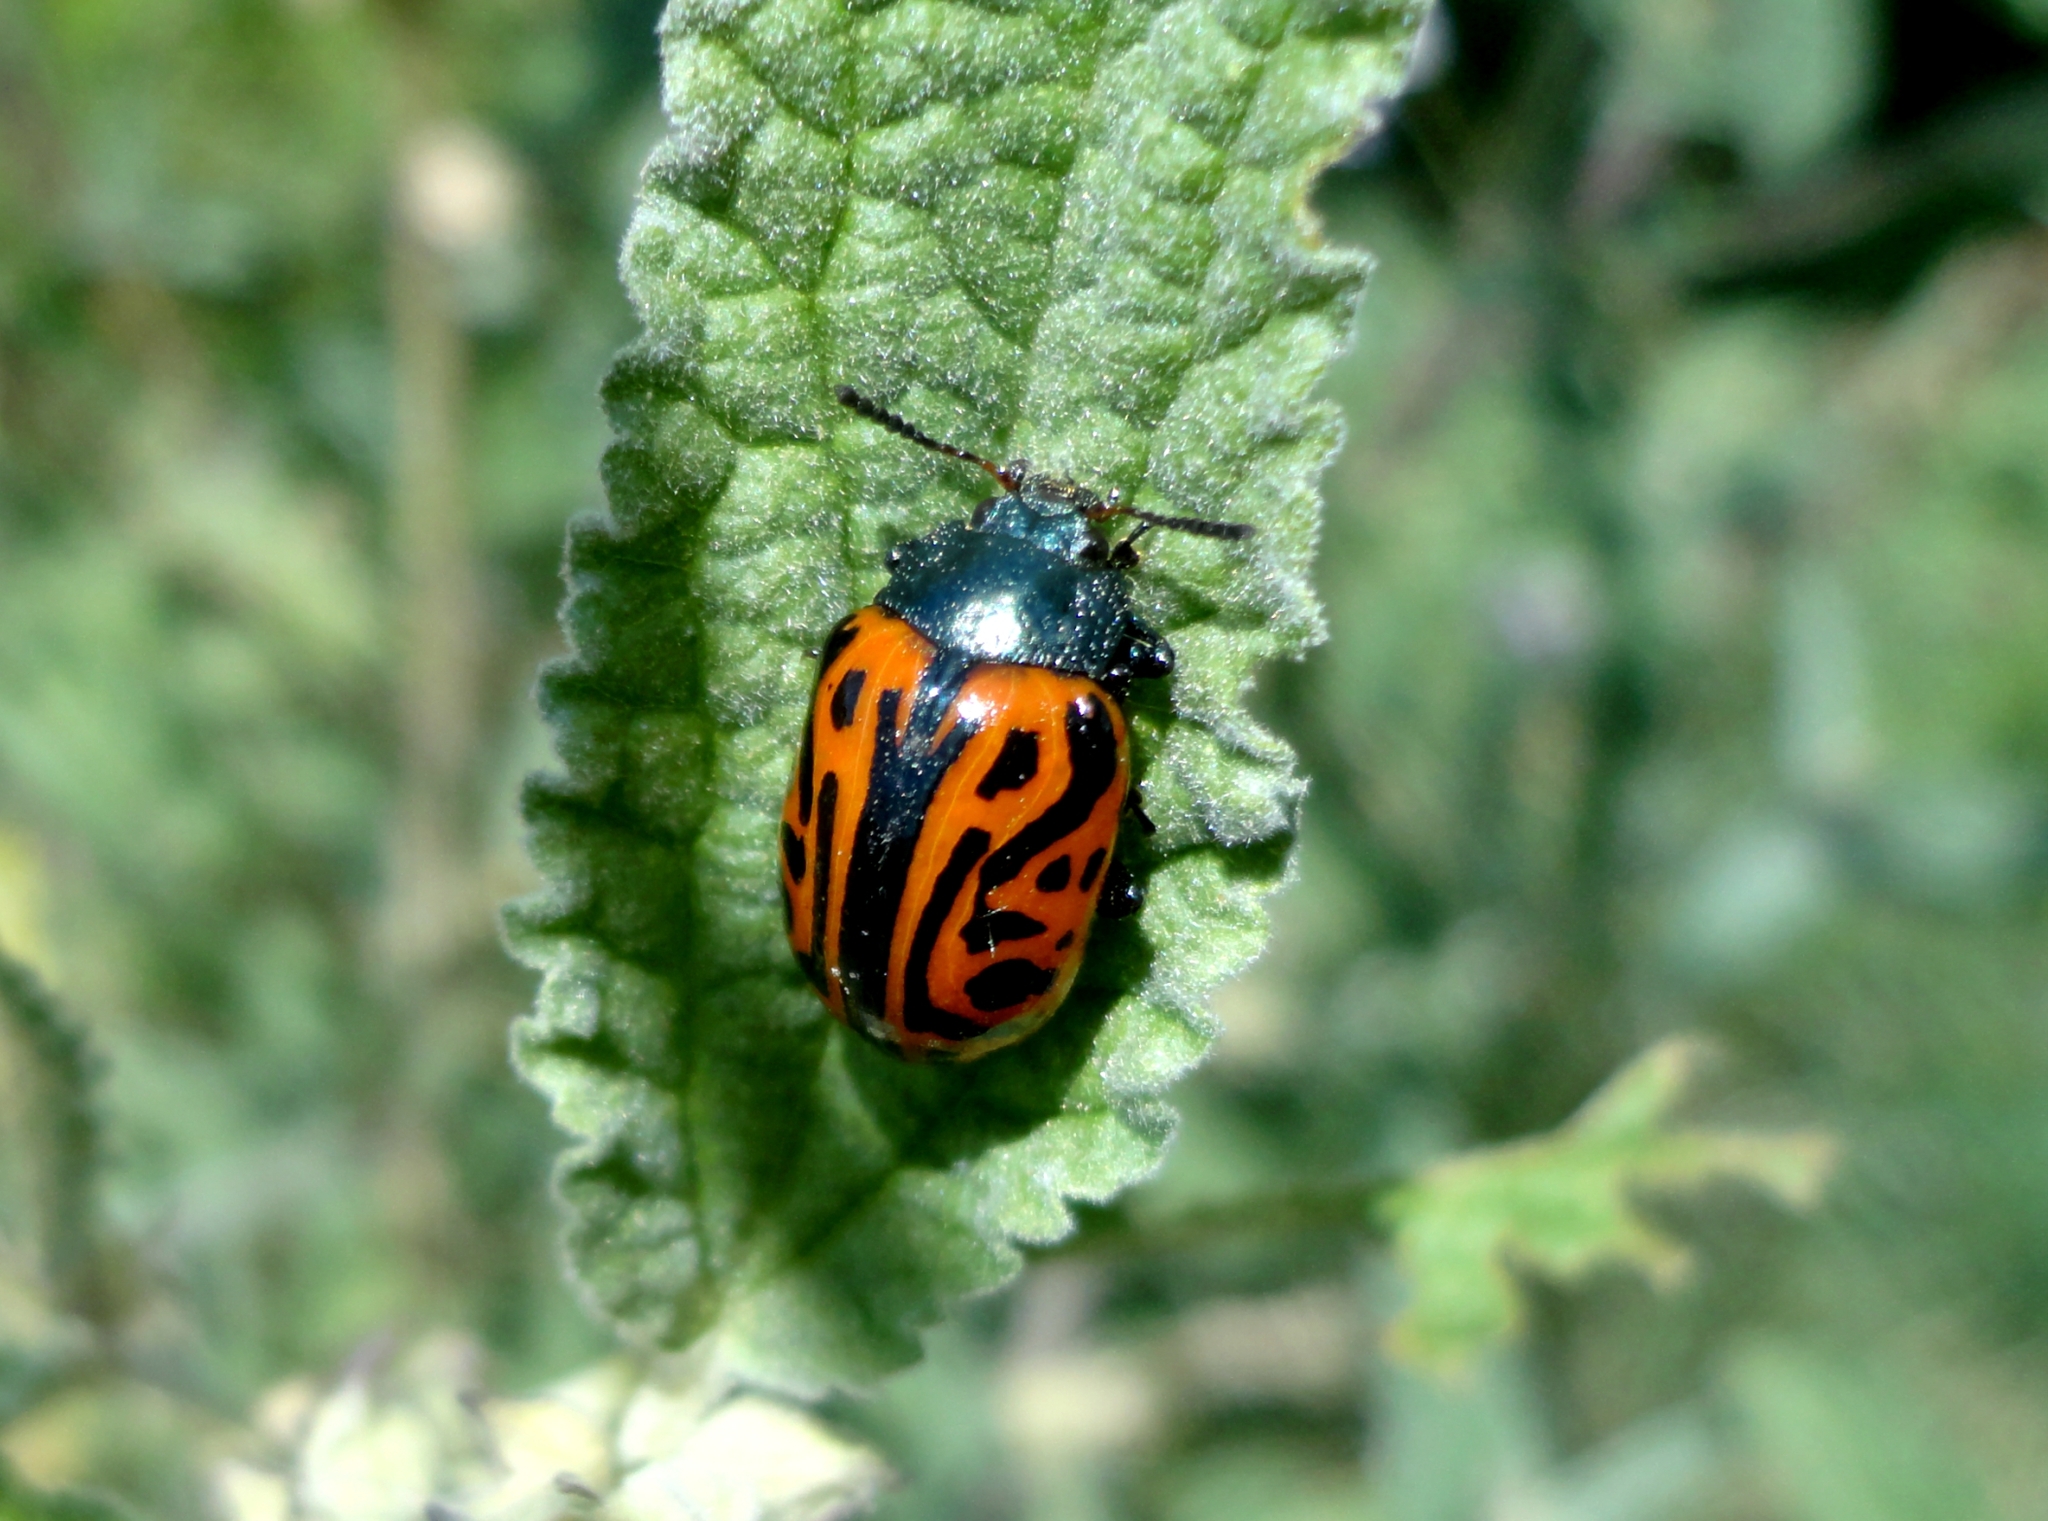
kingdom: Animalia
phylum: Arthropoda
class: Insecta
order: Coleoptera
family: Chrysomelidae
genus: Calligrapha
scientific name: Calligrapha mexicana
